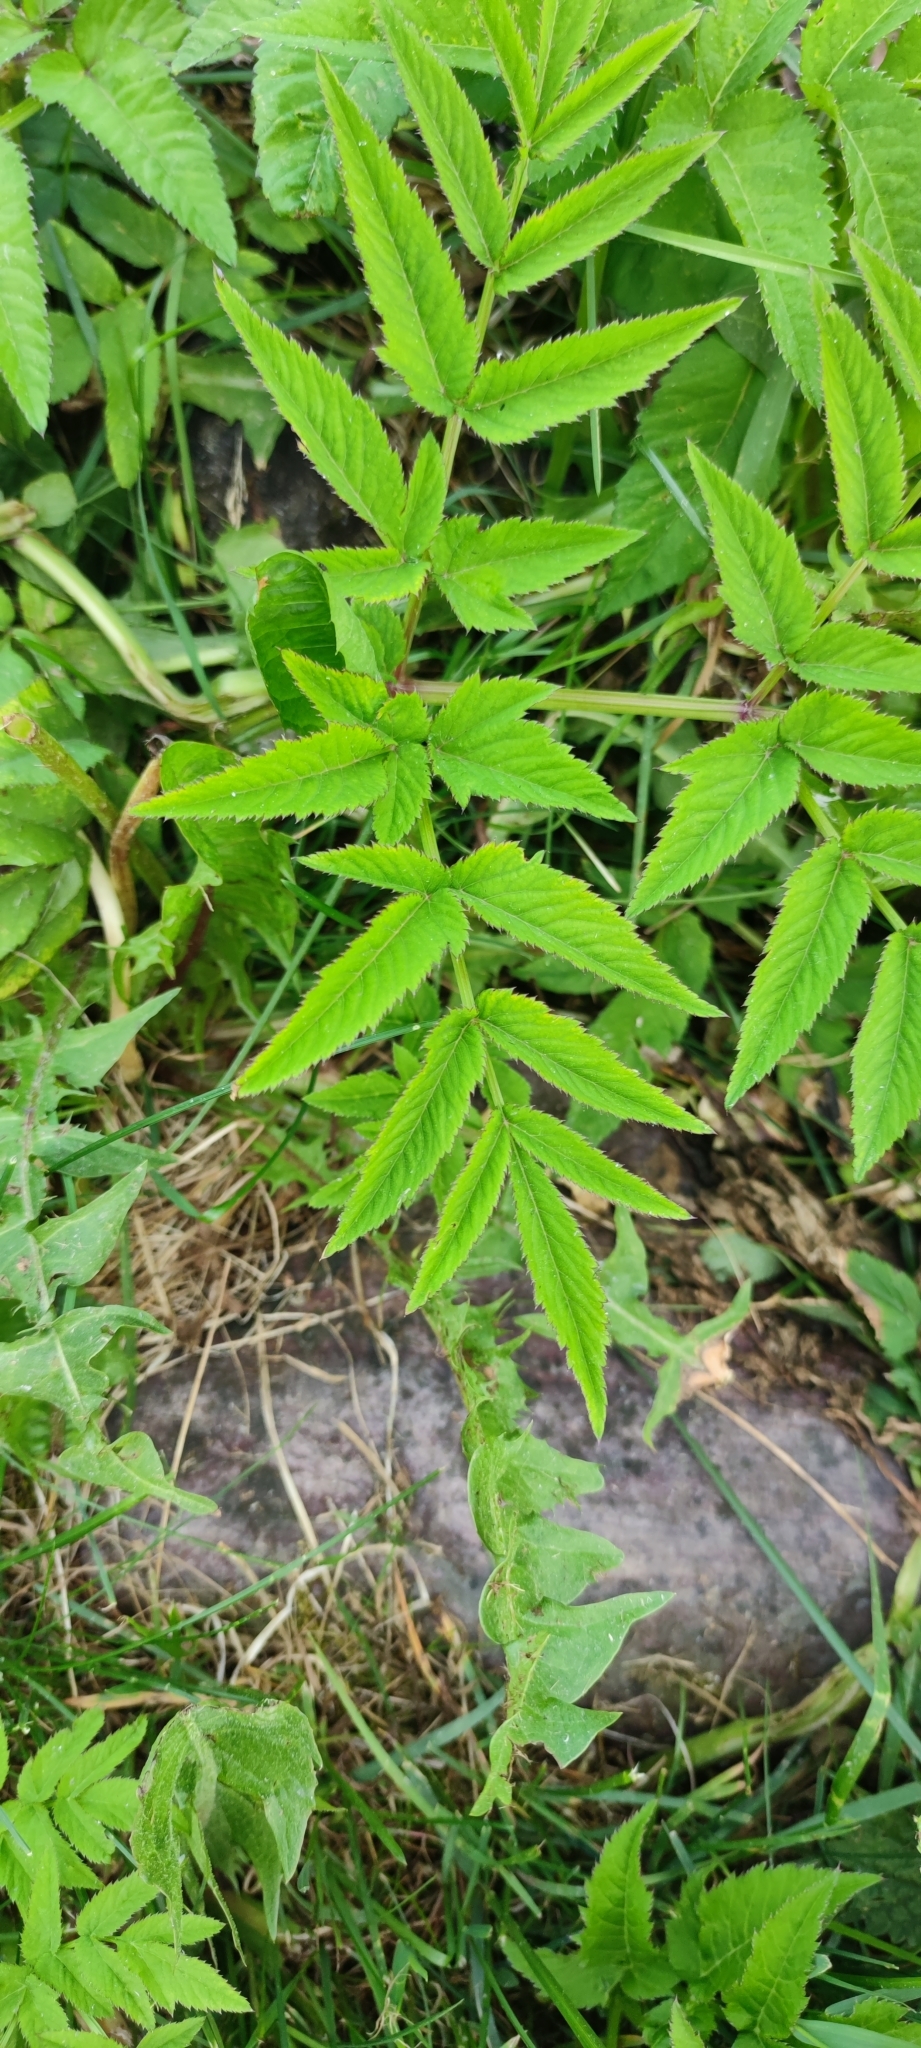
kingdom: Plantae
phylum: Tracheophyta
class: Magnoliopsida
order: Apiales
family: Apiaceae
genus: Angelica
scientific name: Angelica sylvestris
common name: Wild angelica
